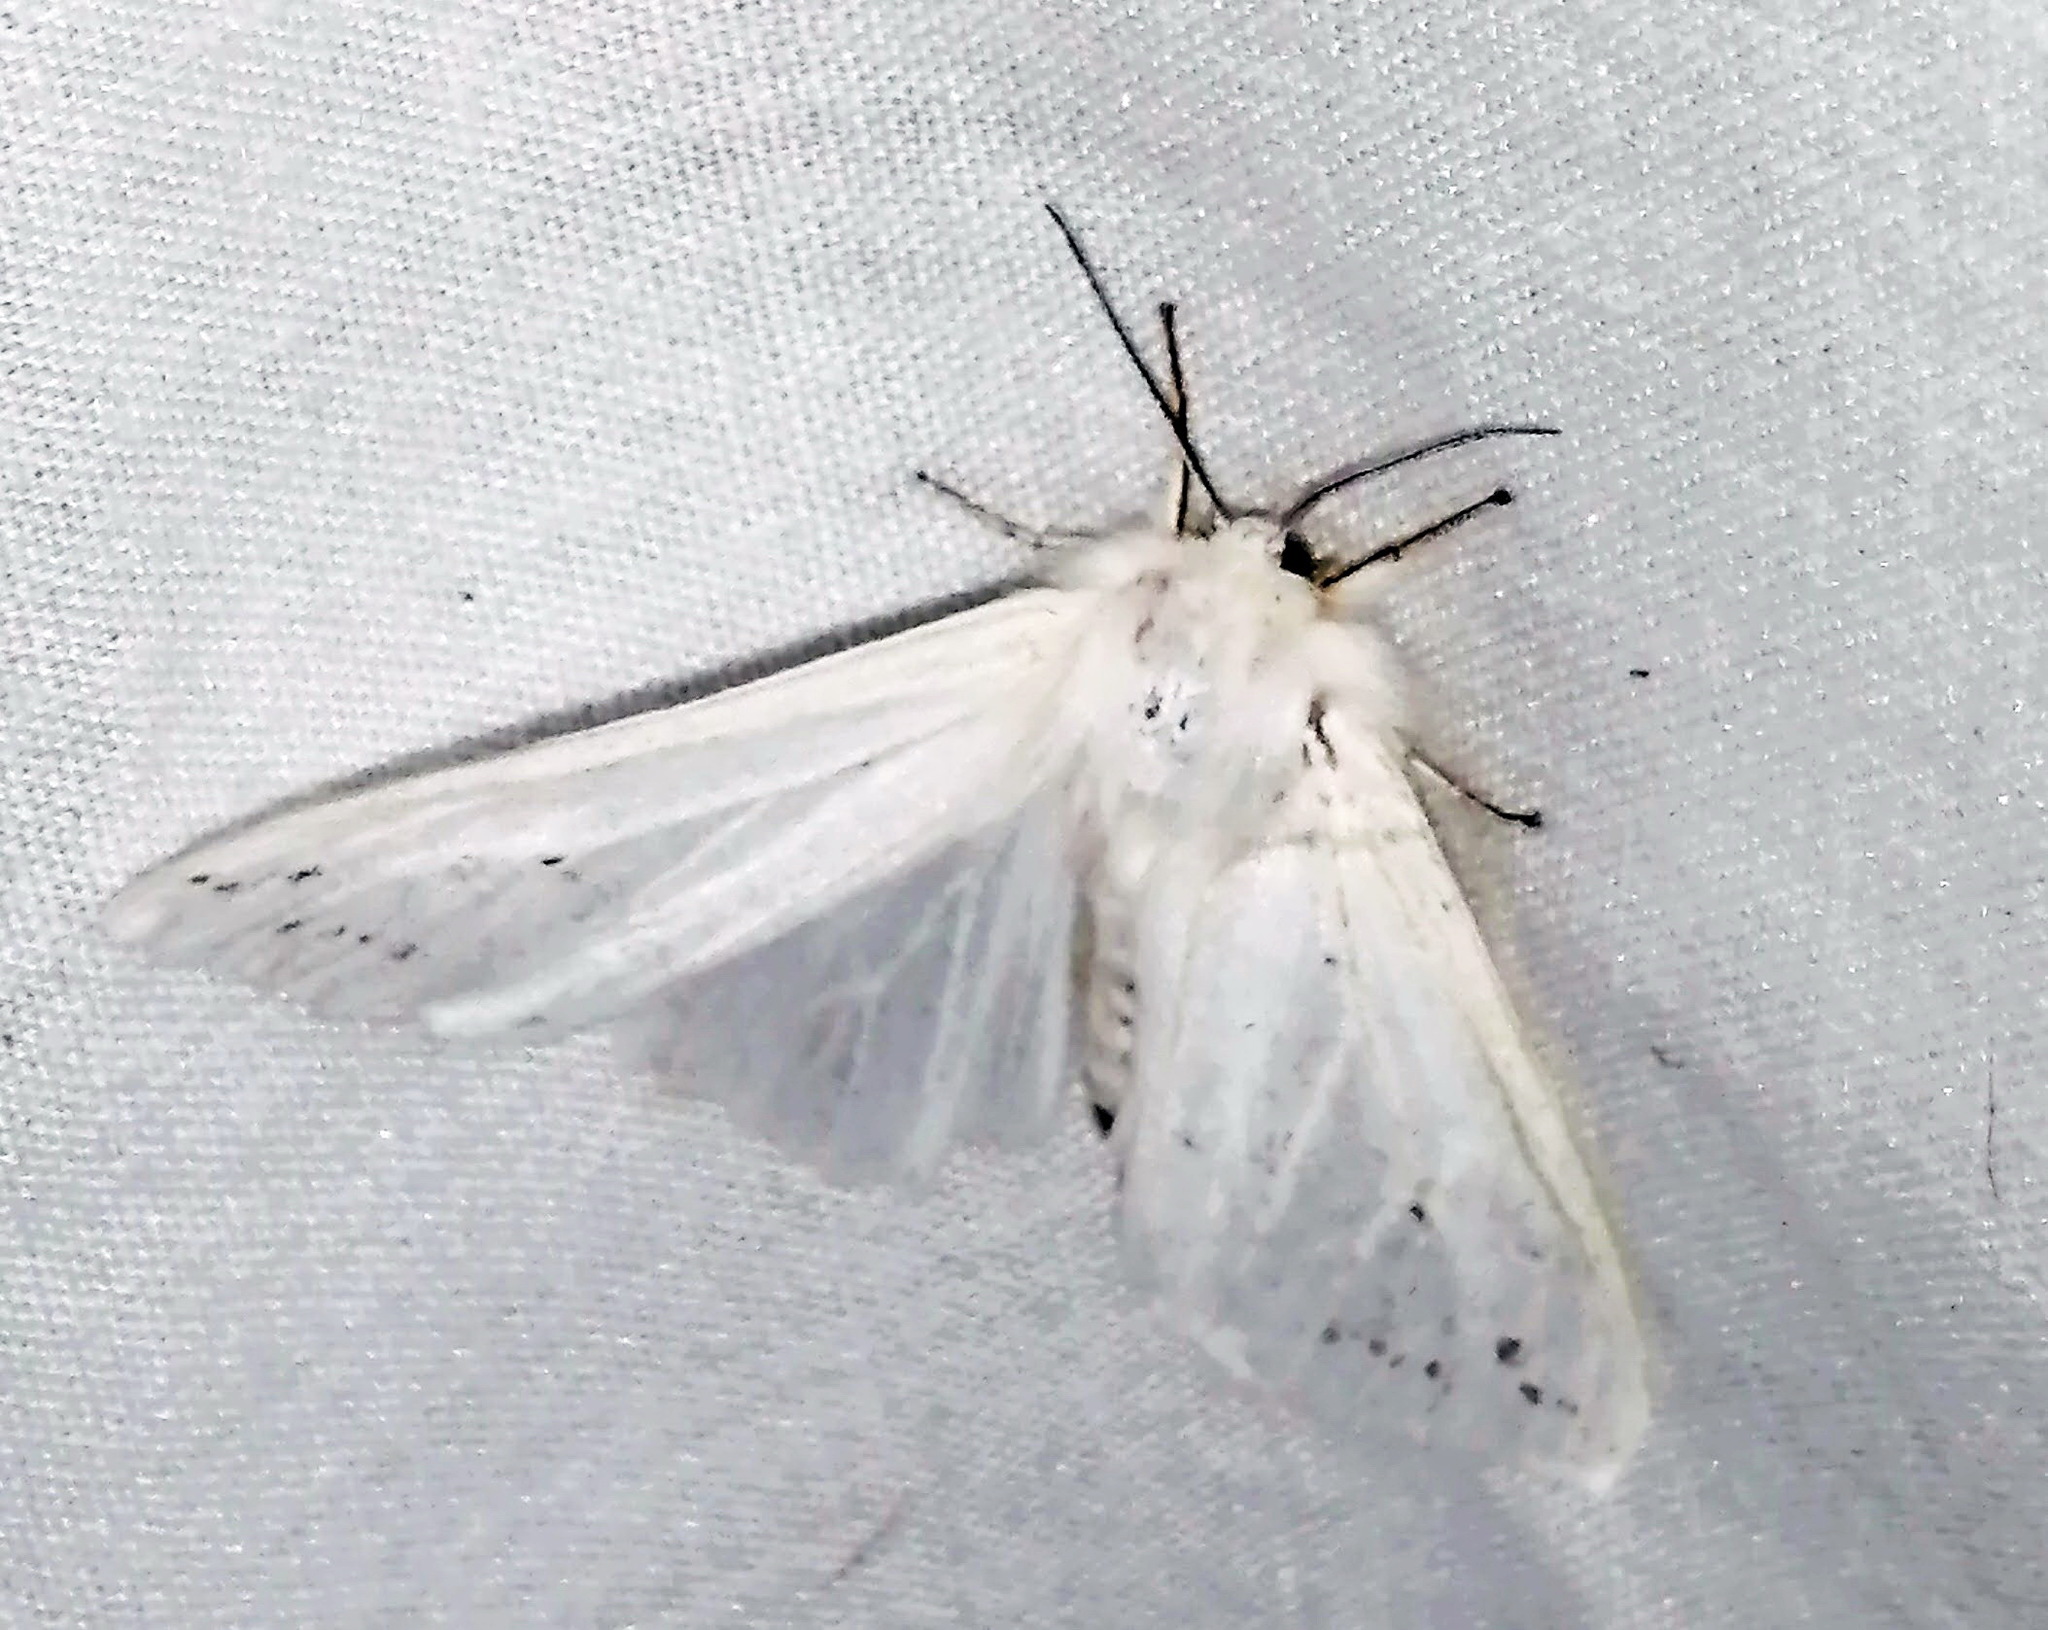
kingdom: Animalia
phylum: Arthropoda
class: Insecta
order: Lepidoptera
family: Erebidae
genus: Spilosoma
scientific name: Spilosoma congrua
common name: Agreeable tiger moth
